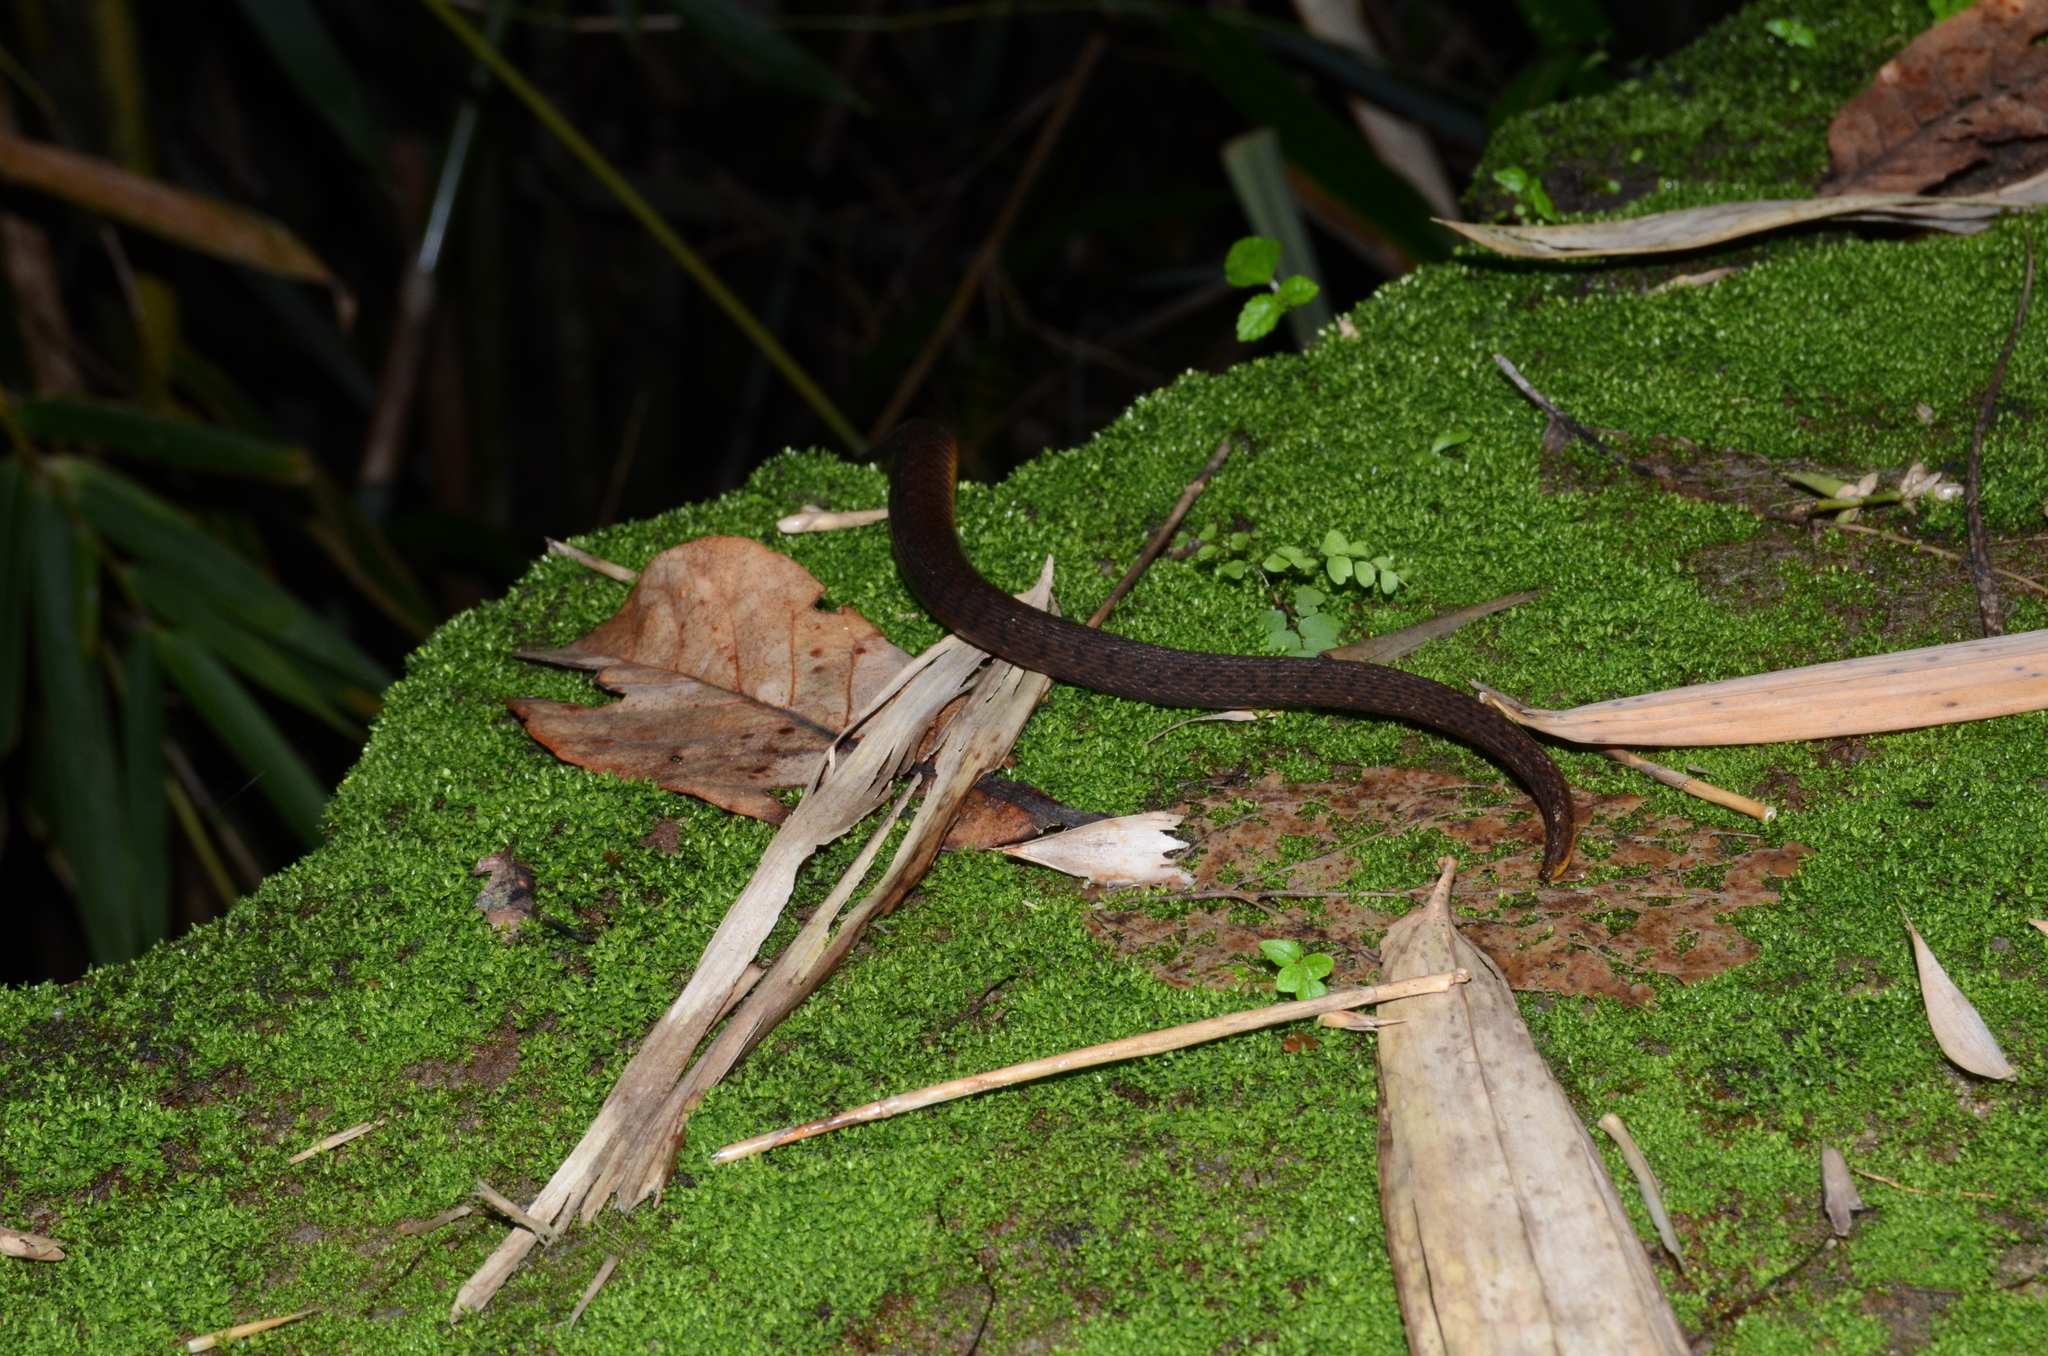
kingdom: Animalia
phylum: Chordata
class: Squamata
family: Colubridae
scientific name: Colubridae
